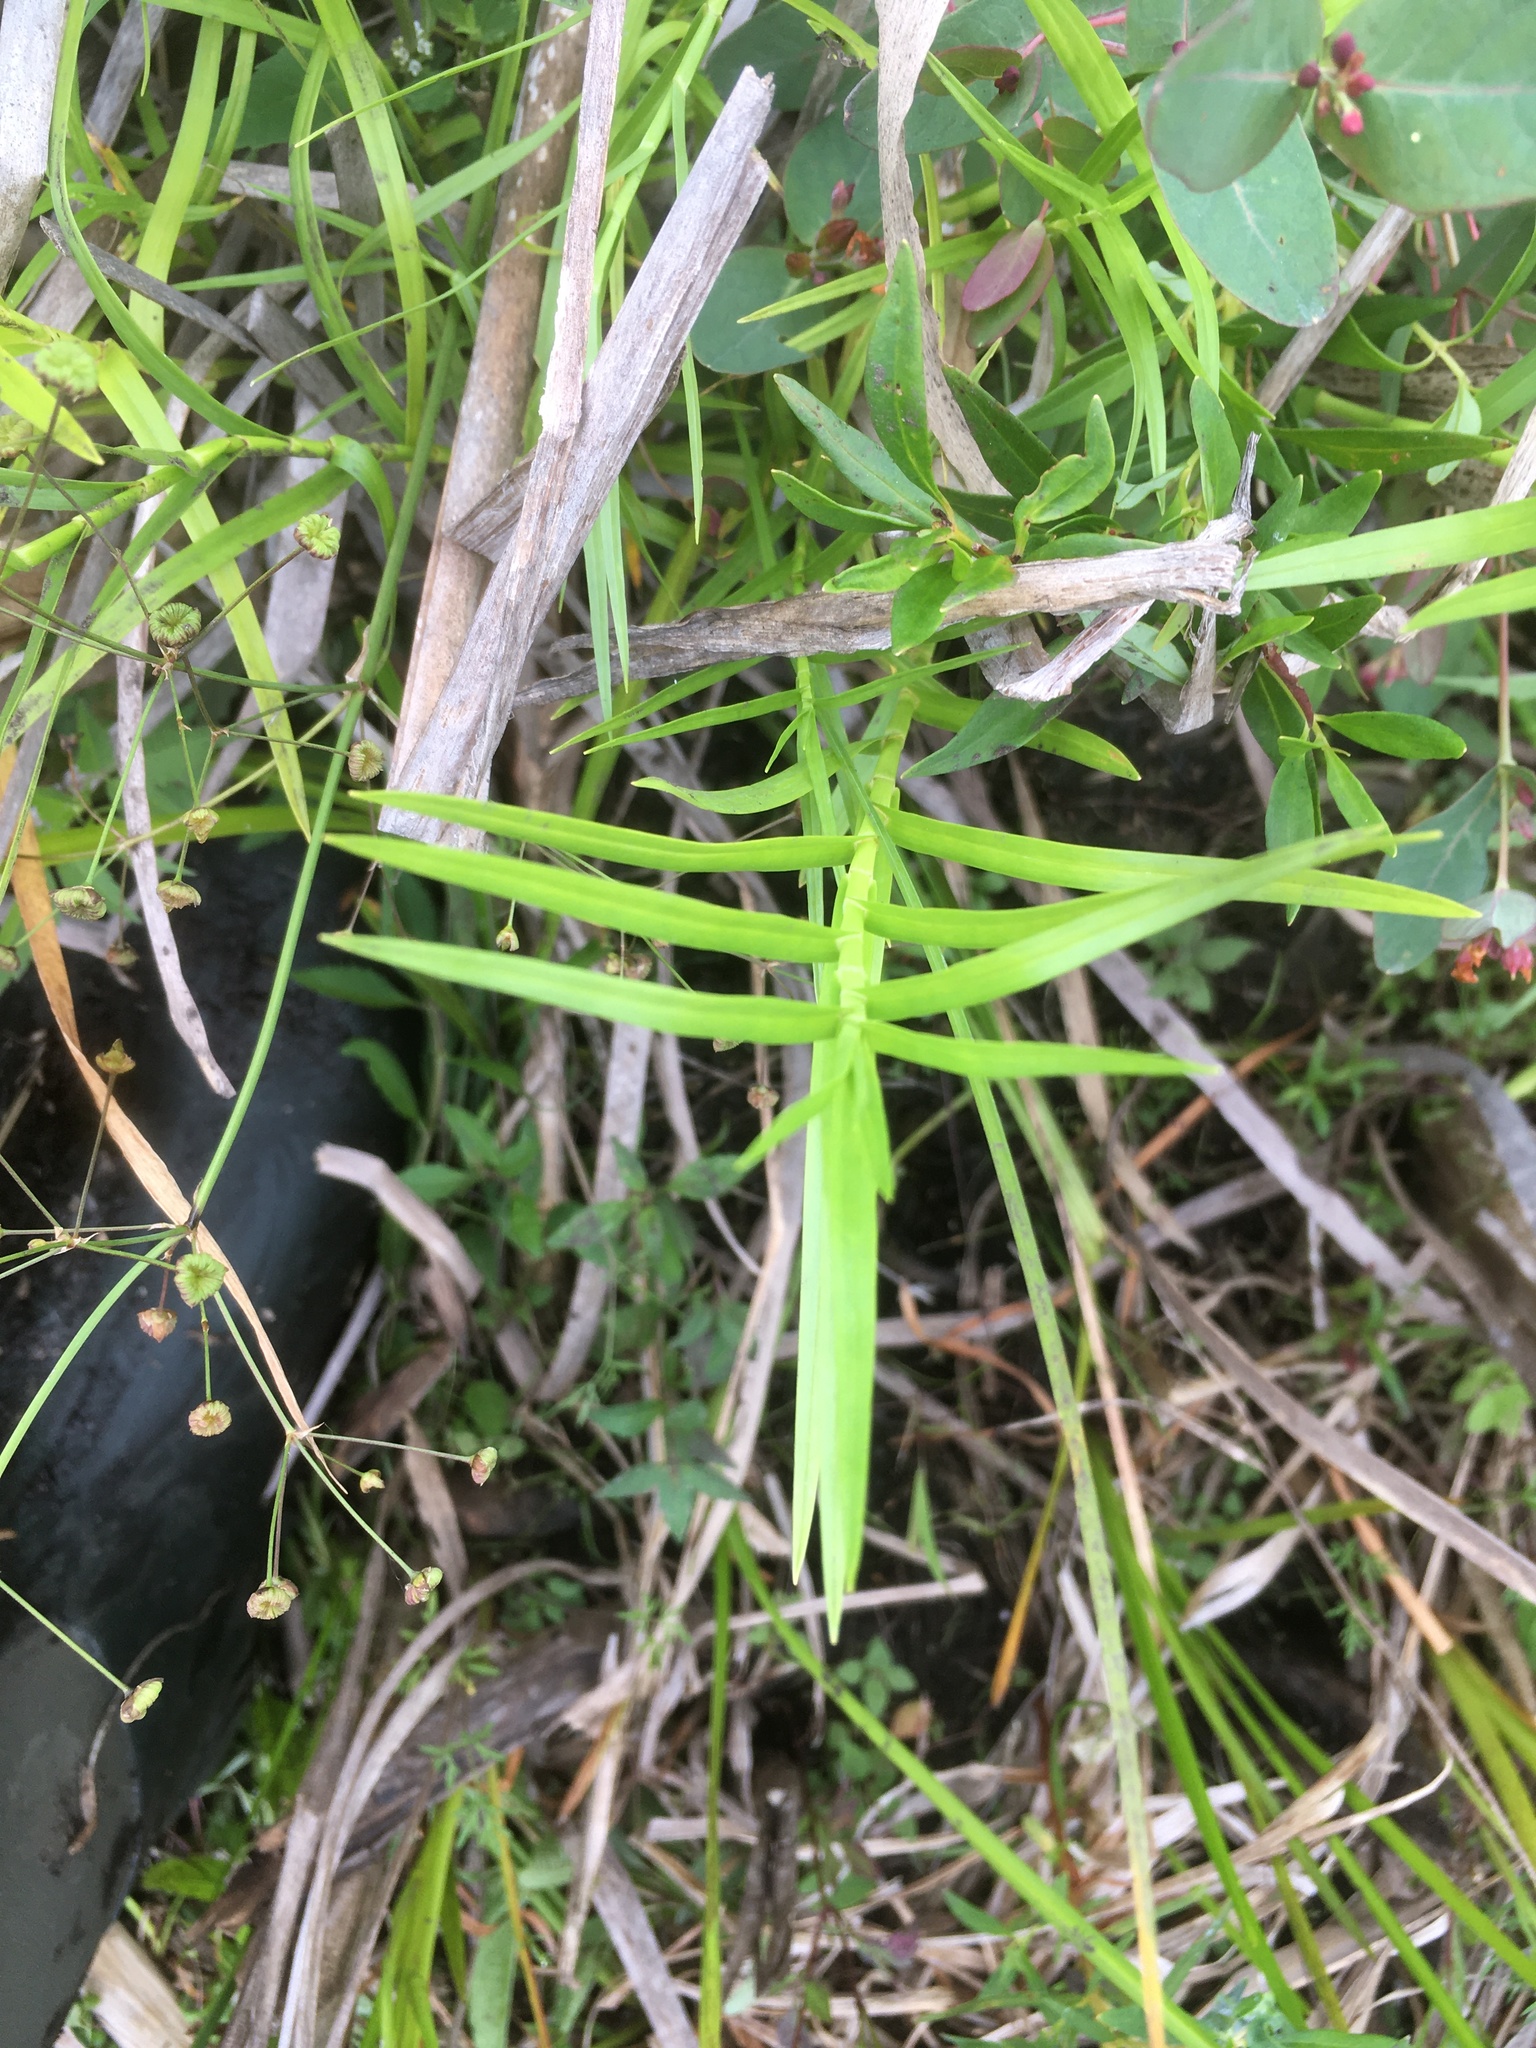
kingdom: Plantae
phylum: Tracheophyta
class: Liliopsida
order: Poales
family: Cyperaceae
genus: Dulichium
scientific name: Dulichium arundinaceum
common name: Three-way sedge
